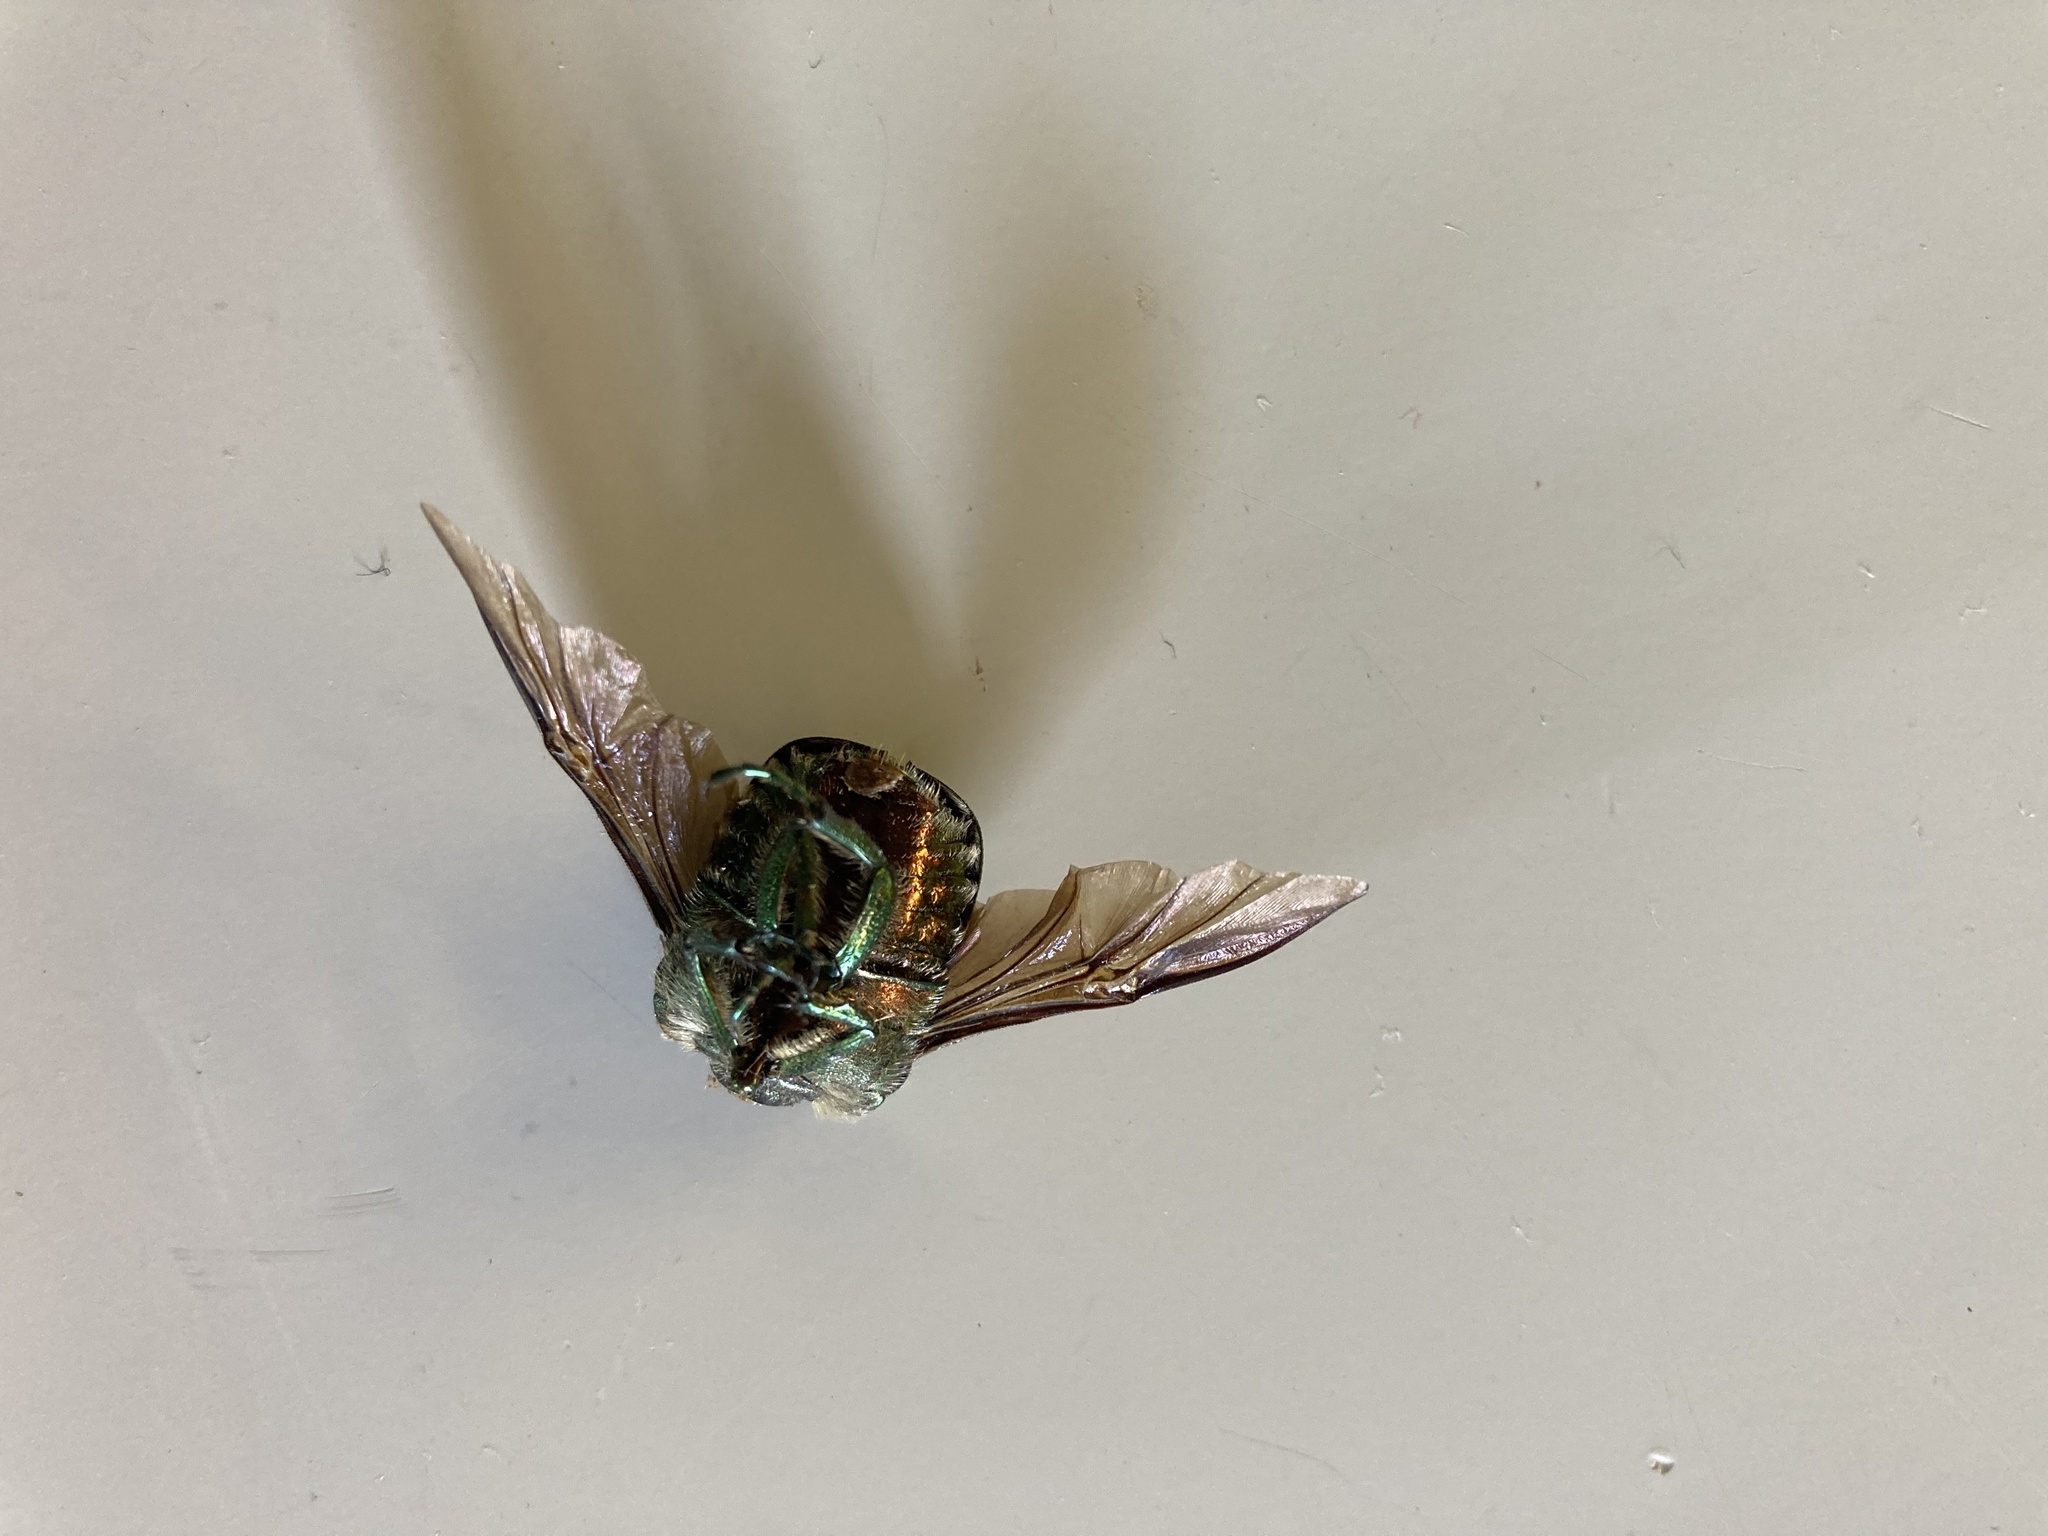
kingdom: Animalia
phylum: Arthropoda
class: Insecta
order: Coleoptera
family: Scarabaeidae
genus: Cetonia
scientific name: Cetonia aurata
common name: Rose chafer
